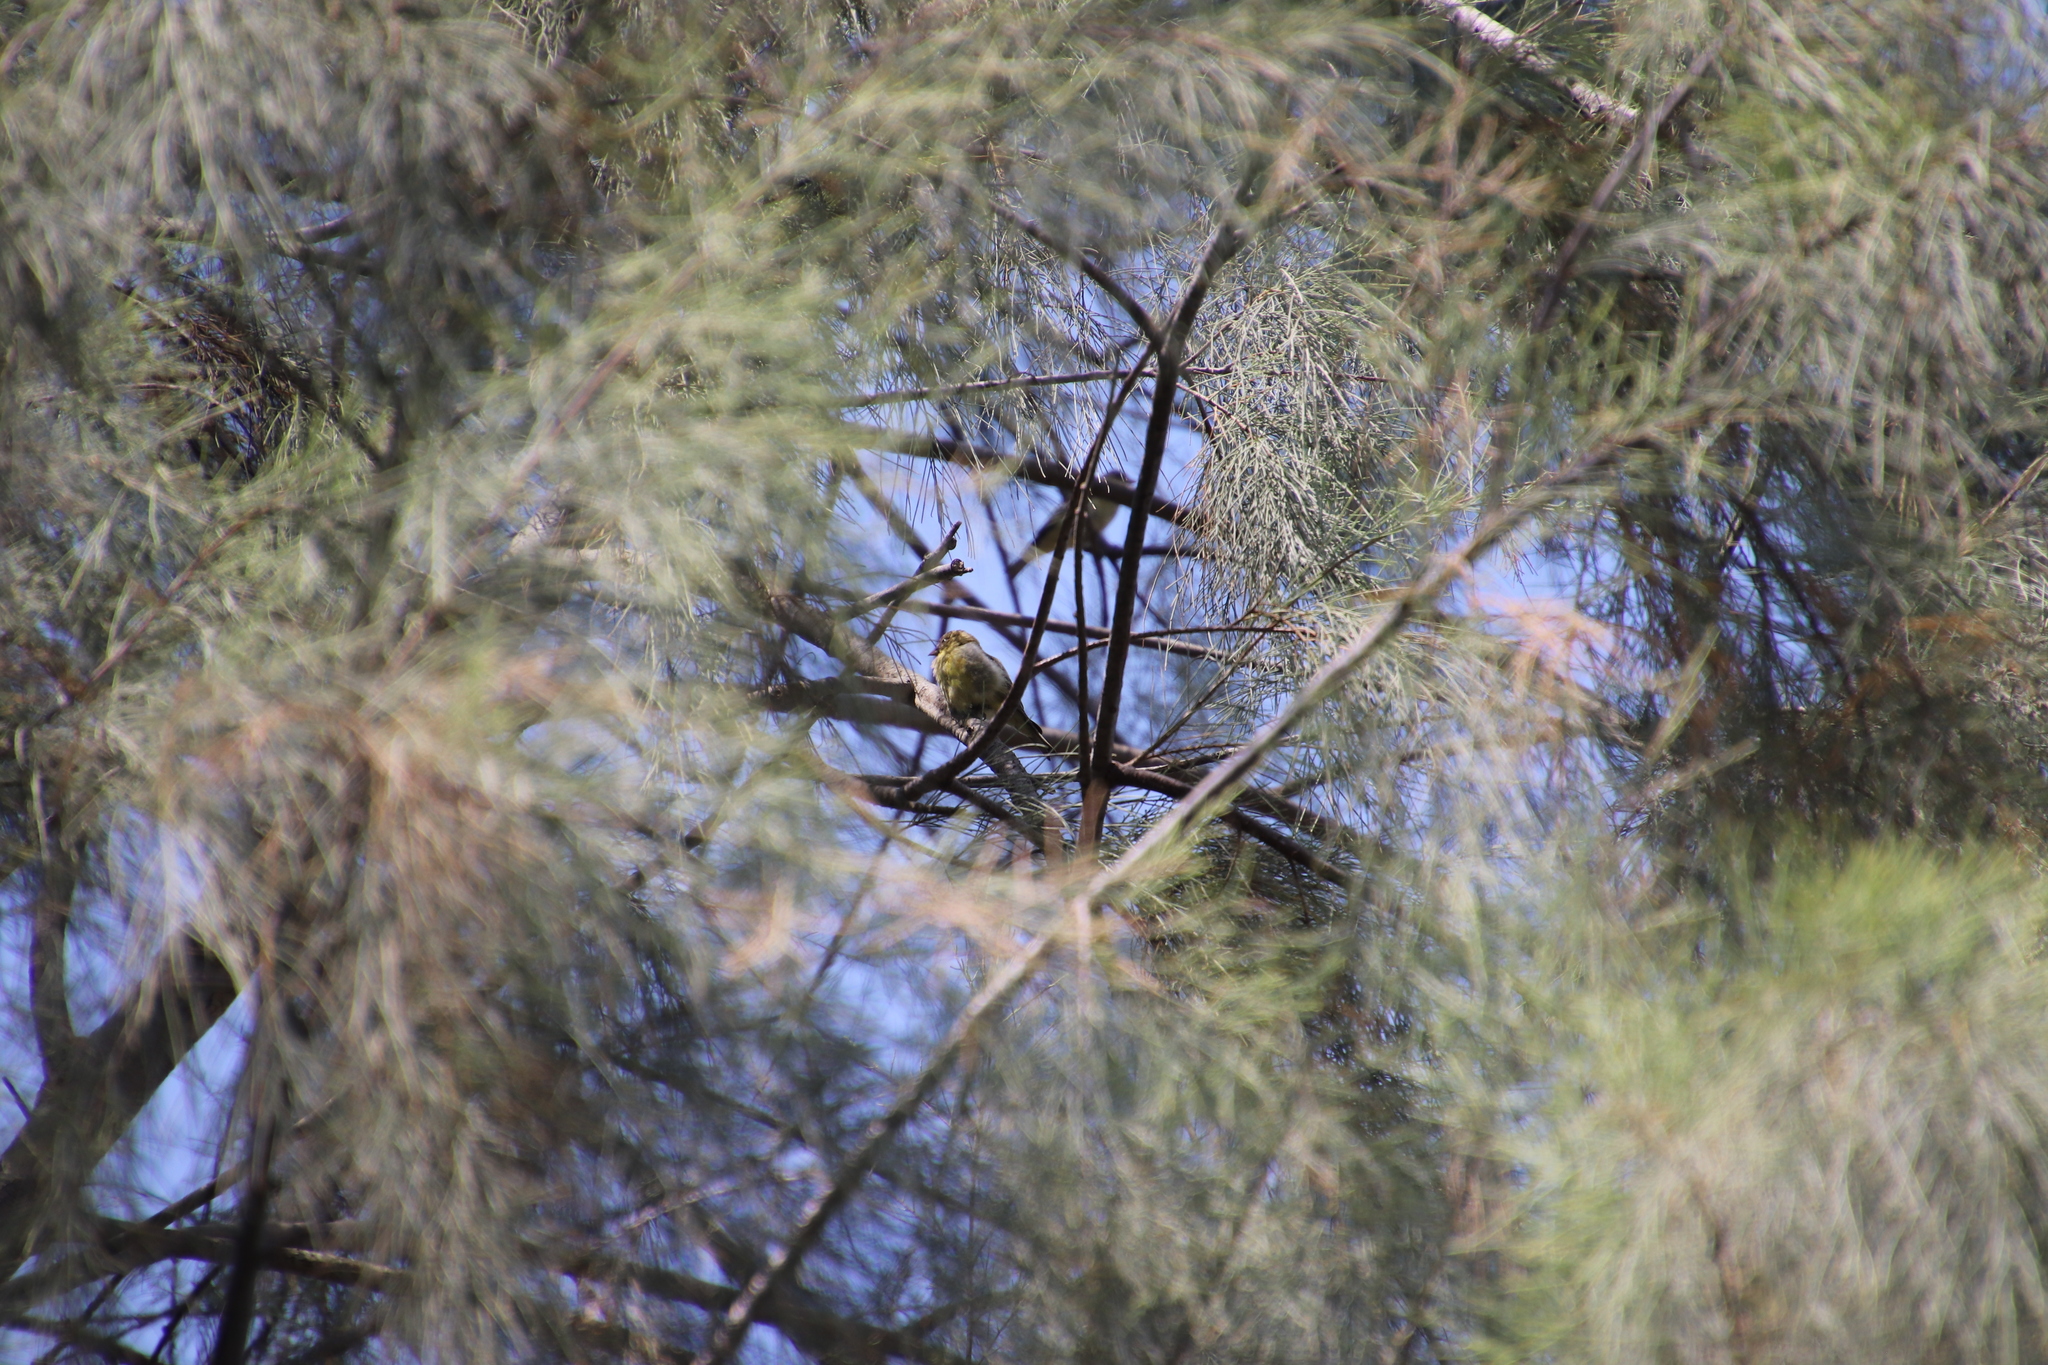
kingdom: Animalia
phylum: Chordata
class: Aves
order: Passeriformes
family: Fringillidae
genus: Spinus
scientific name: Spinus psaltria
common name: Lesser goldfinch
